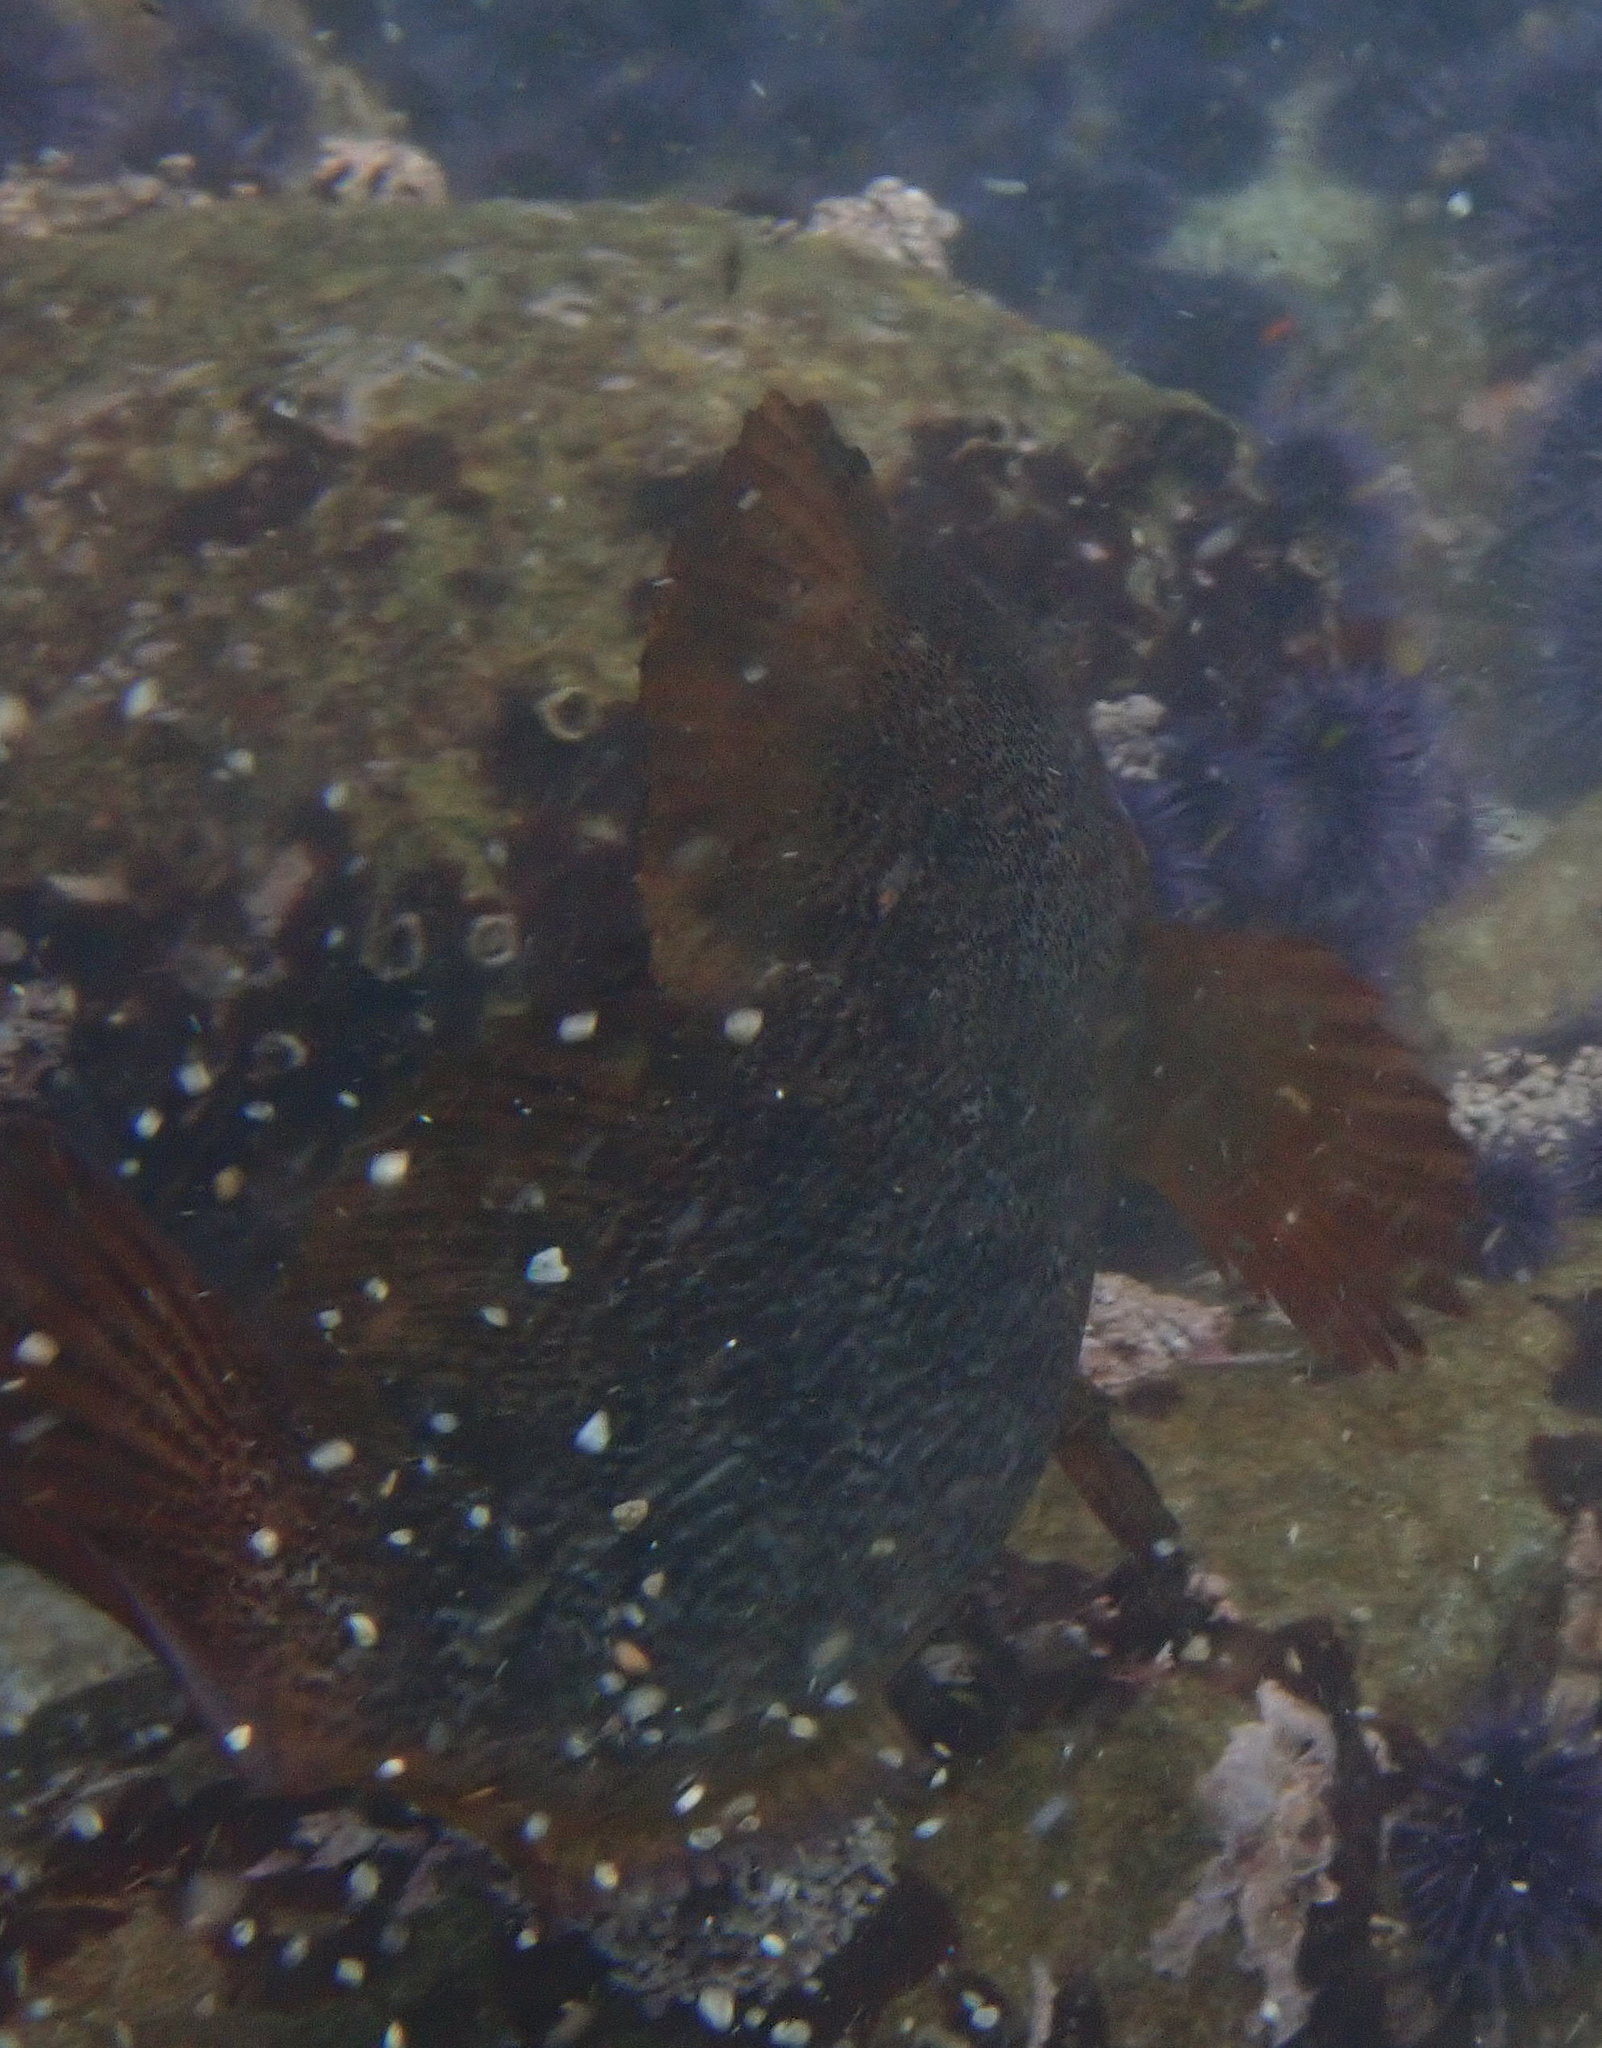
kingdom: Animalia
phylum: Chordata
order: Scorpaeniformes
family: Hexagrammidae
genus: Hexagrammos
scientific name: Hexagrammos decagrammus
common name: Kelp greenling
